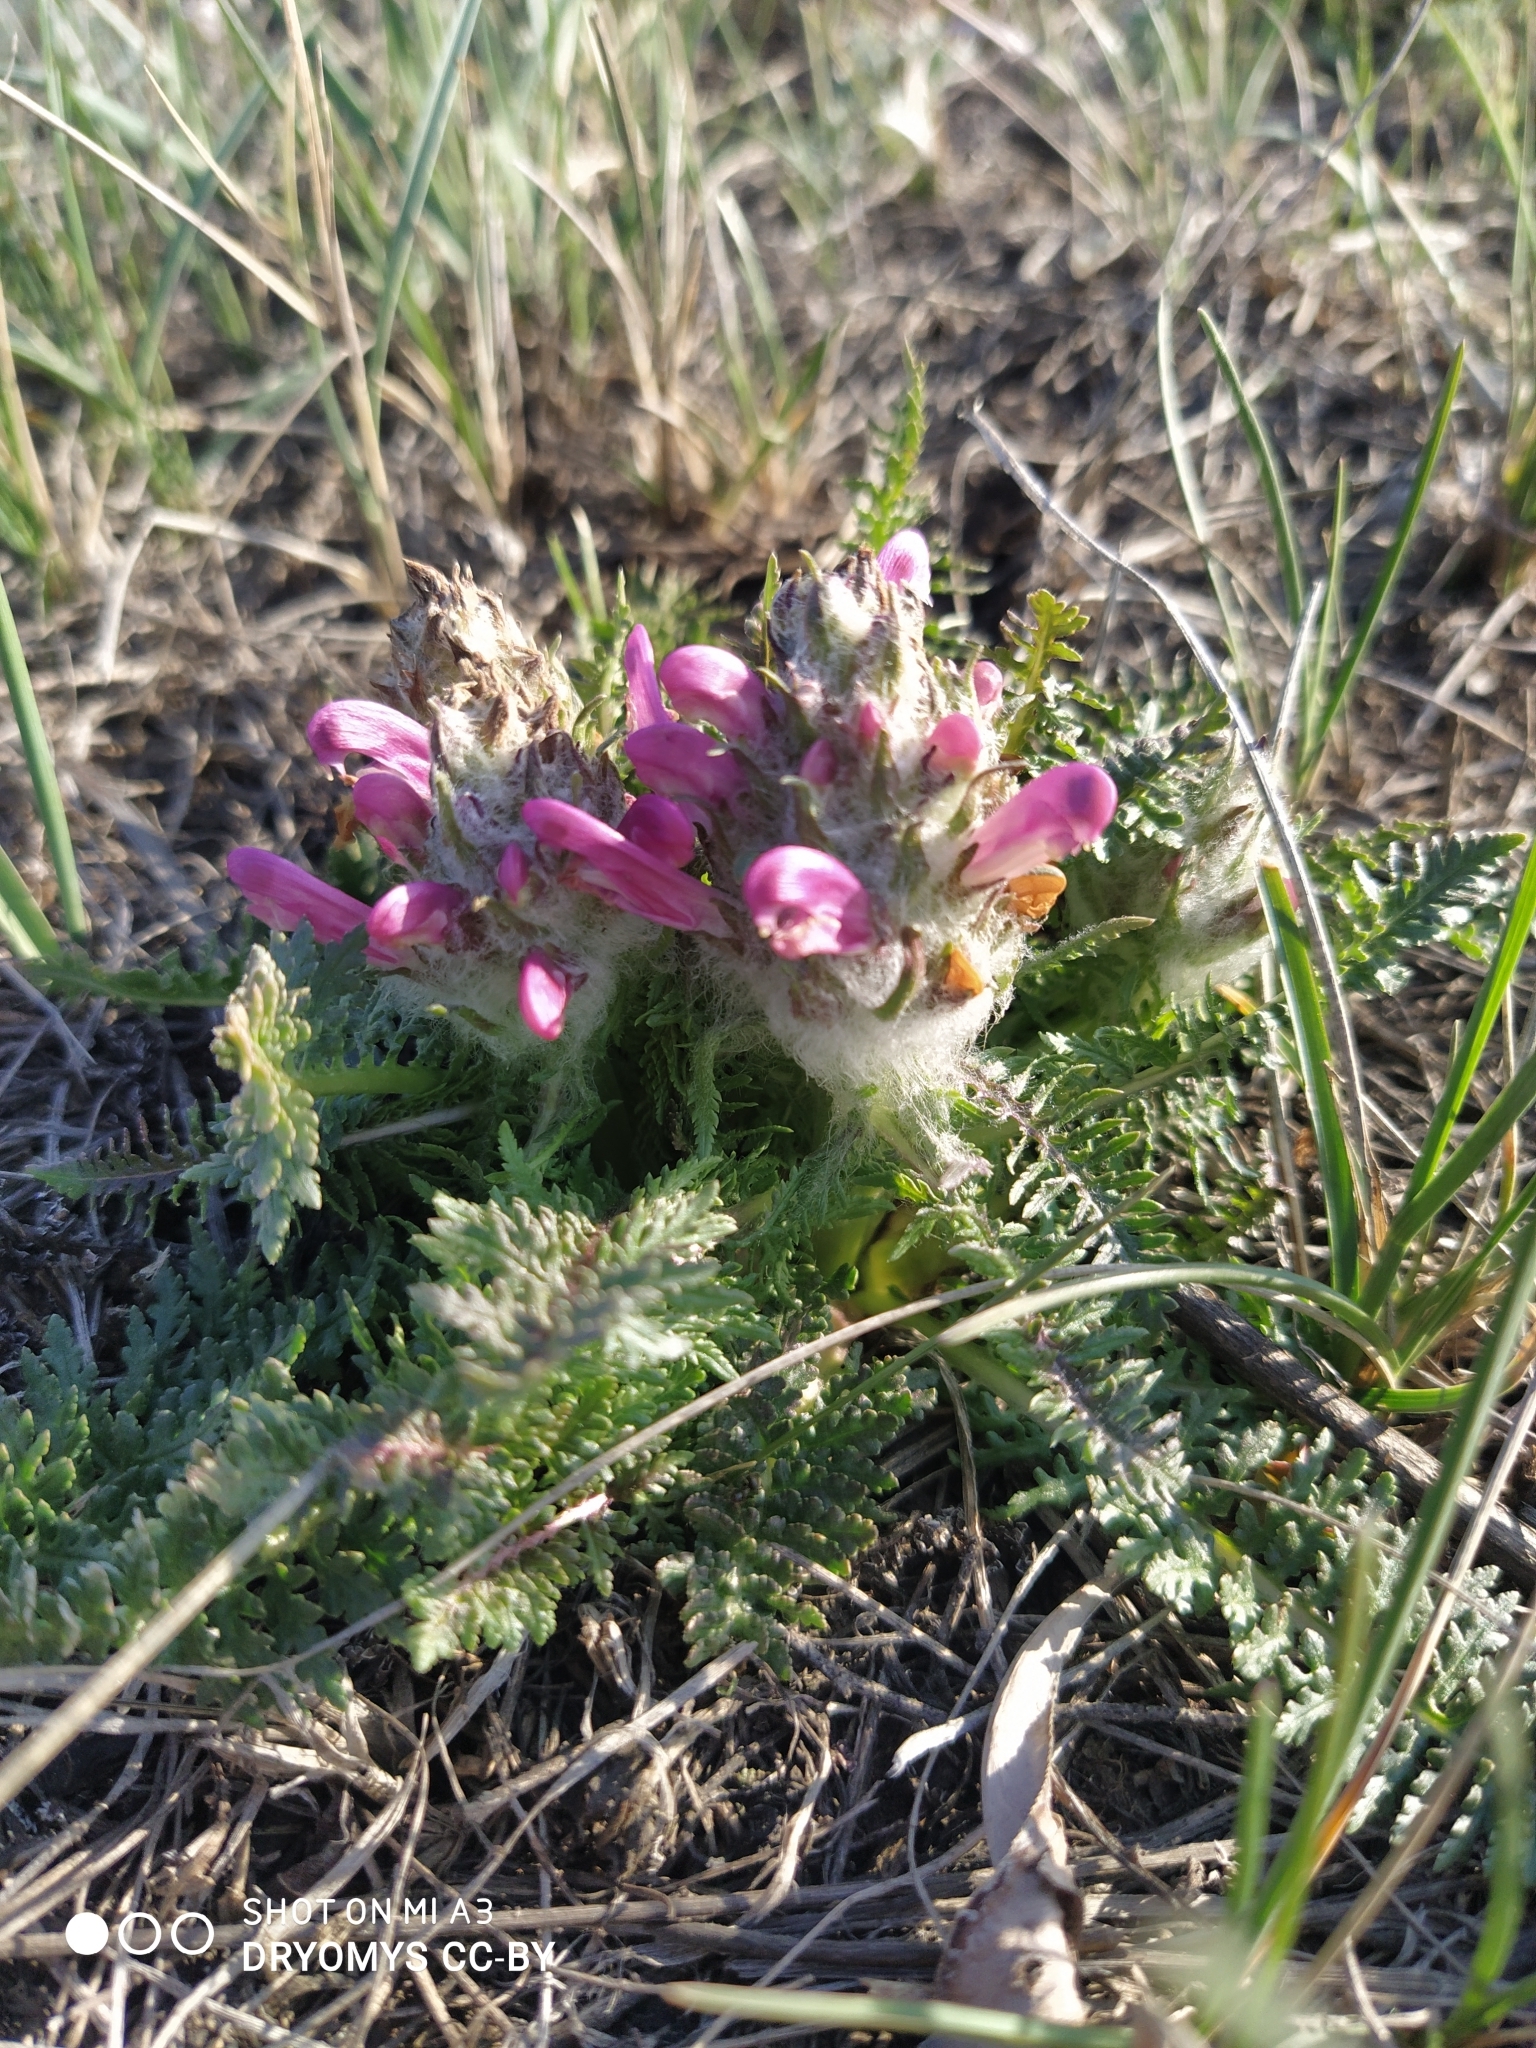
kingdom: Plantae
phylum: Tracheophyta
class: Magnoliopsida
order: Lamiales
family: Orobanchaceae
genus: Pedicularis
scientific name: Pedicularis dasystachys
